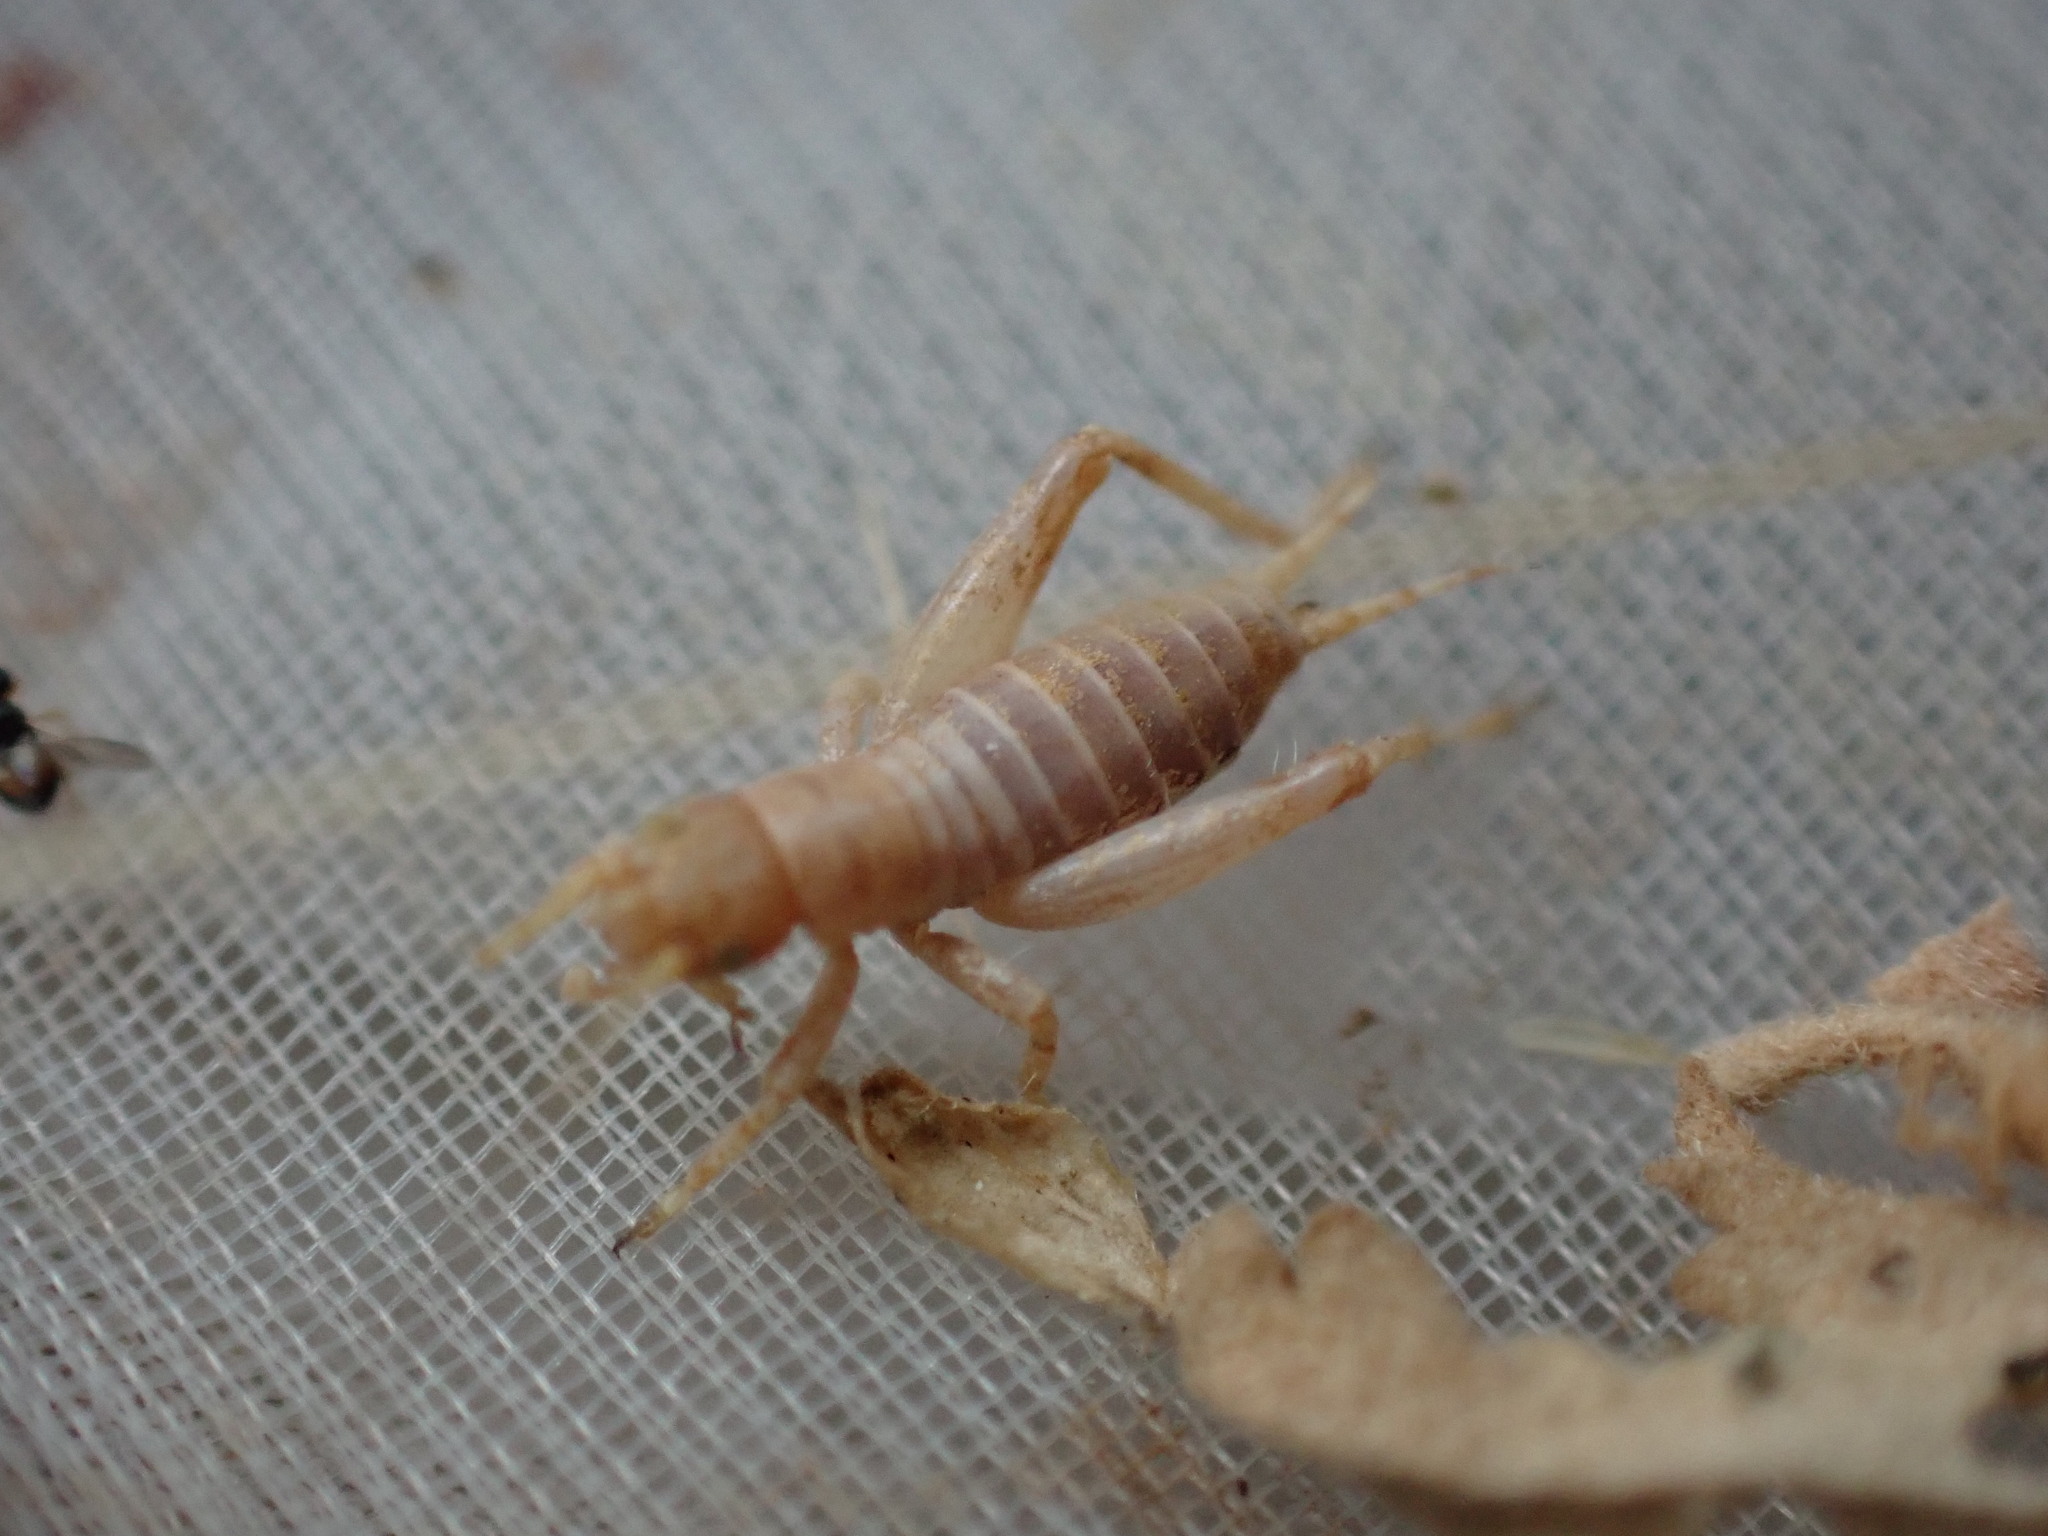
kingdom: Animalia
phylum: Arthropoda
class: Insecta
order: Orthoptera
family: Mogoplistidae
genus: Arachnocephalus
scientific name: Arachnocephalus vestitus
